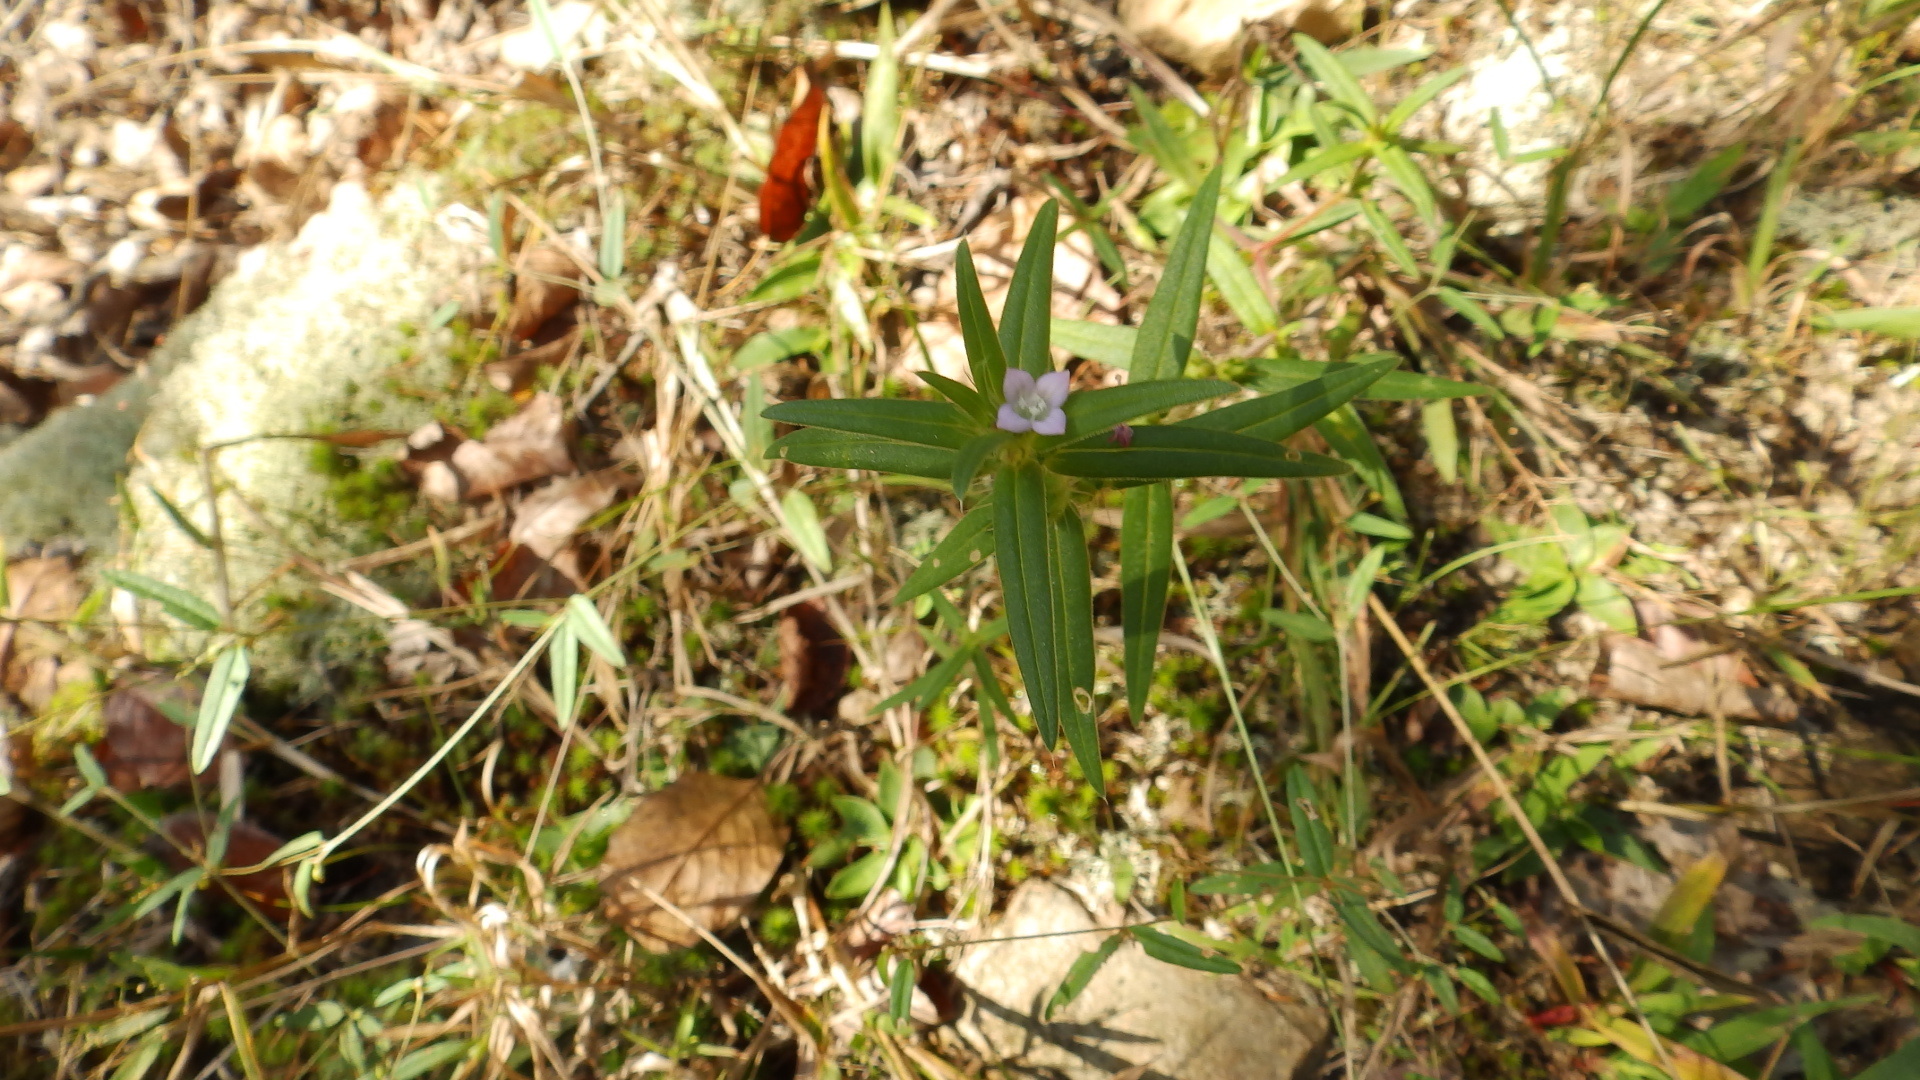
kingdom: Plantae
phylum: Tracheophyta
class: Magnoliopsida
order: Gentianales
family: Rubiaceae
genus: Hexasepalum
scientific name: Hexasepalum teres
